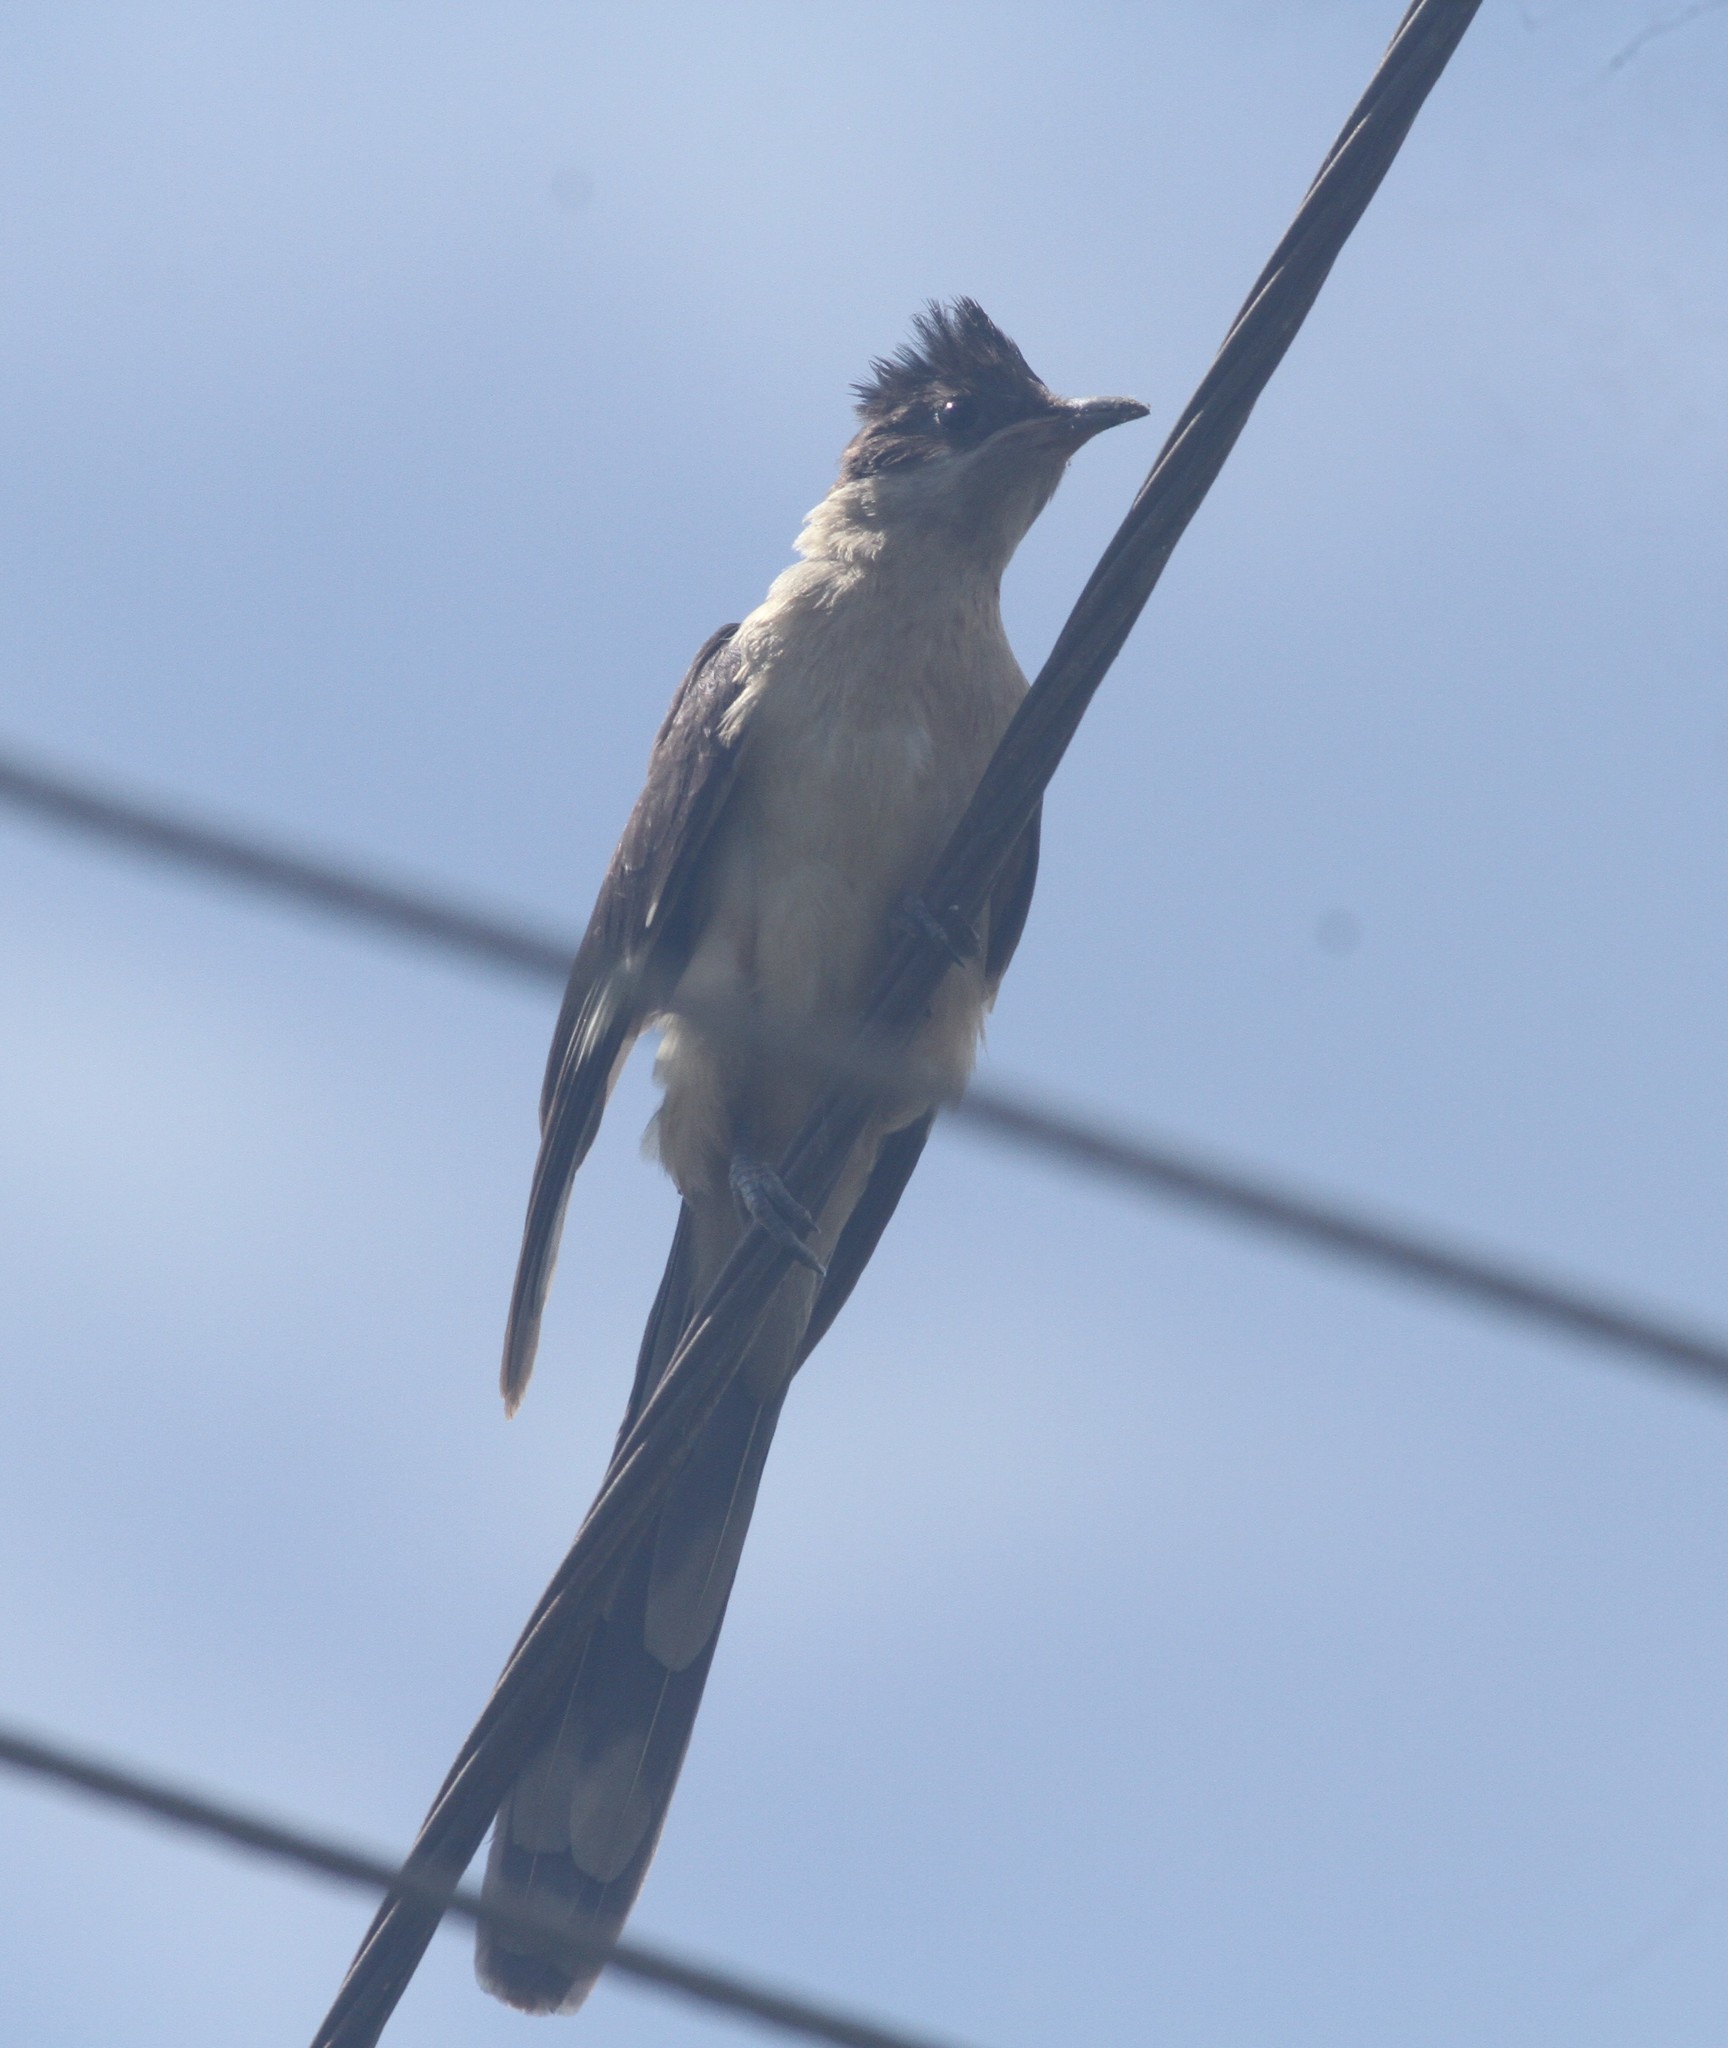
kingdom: Animalia
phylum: Chordata
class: Aves
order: Cuculiformes
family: Cuculidae
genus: Clamator
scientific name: Clamator jacobinus
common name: Jacobin cuckoo
